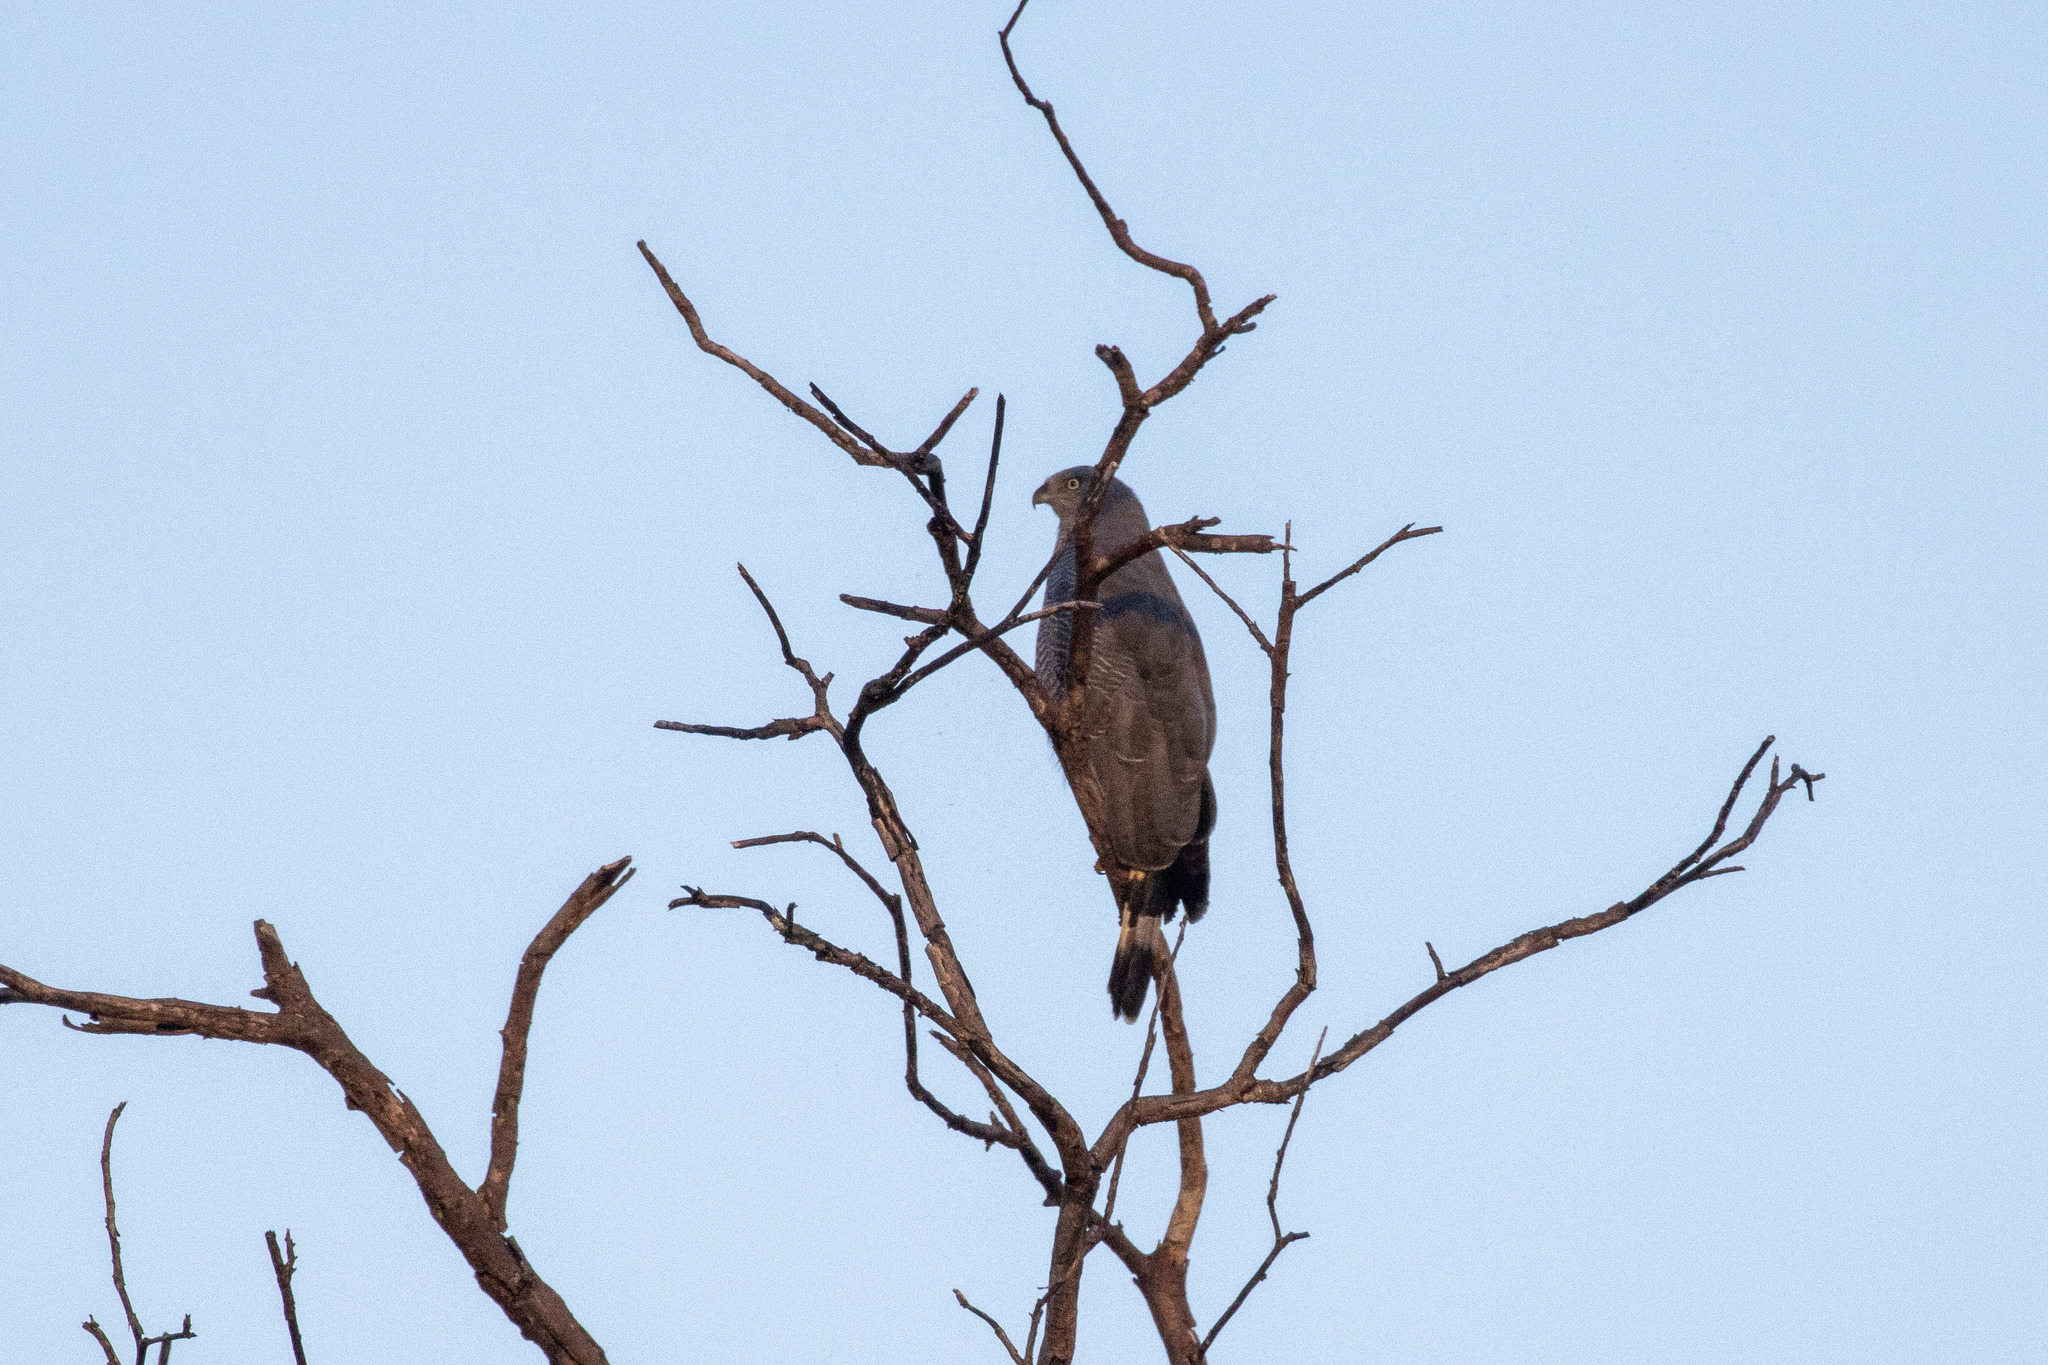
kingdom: Animalia
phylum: Chordata
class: Aves
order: Accipitriformes
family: Accipitridae
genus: Geranospiza
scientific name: Geranospiza caerulescens
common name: Crane hawk
